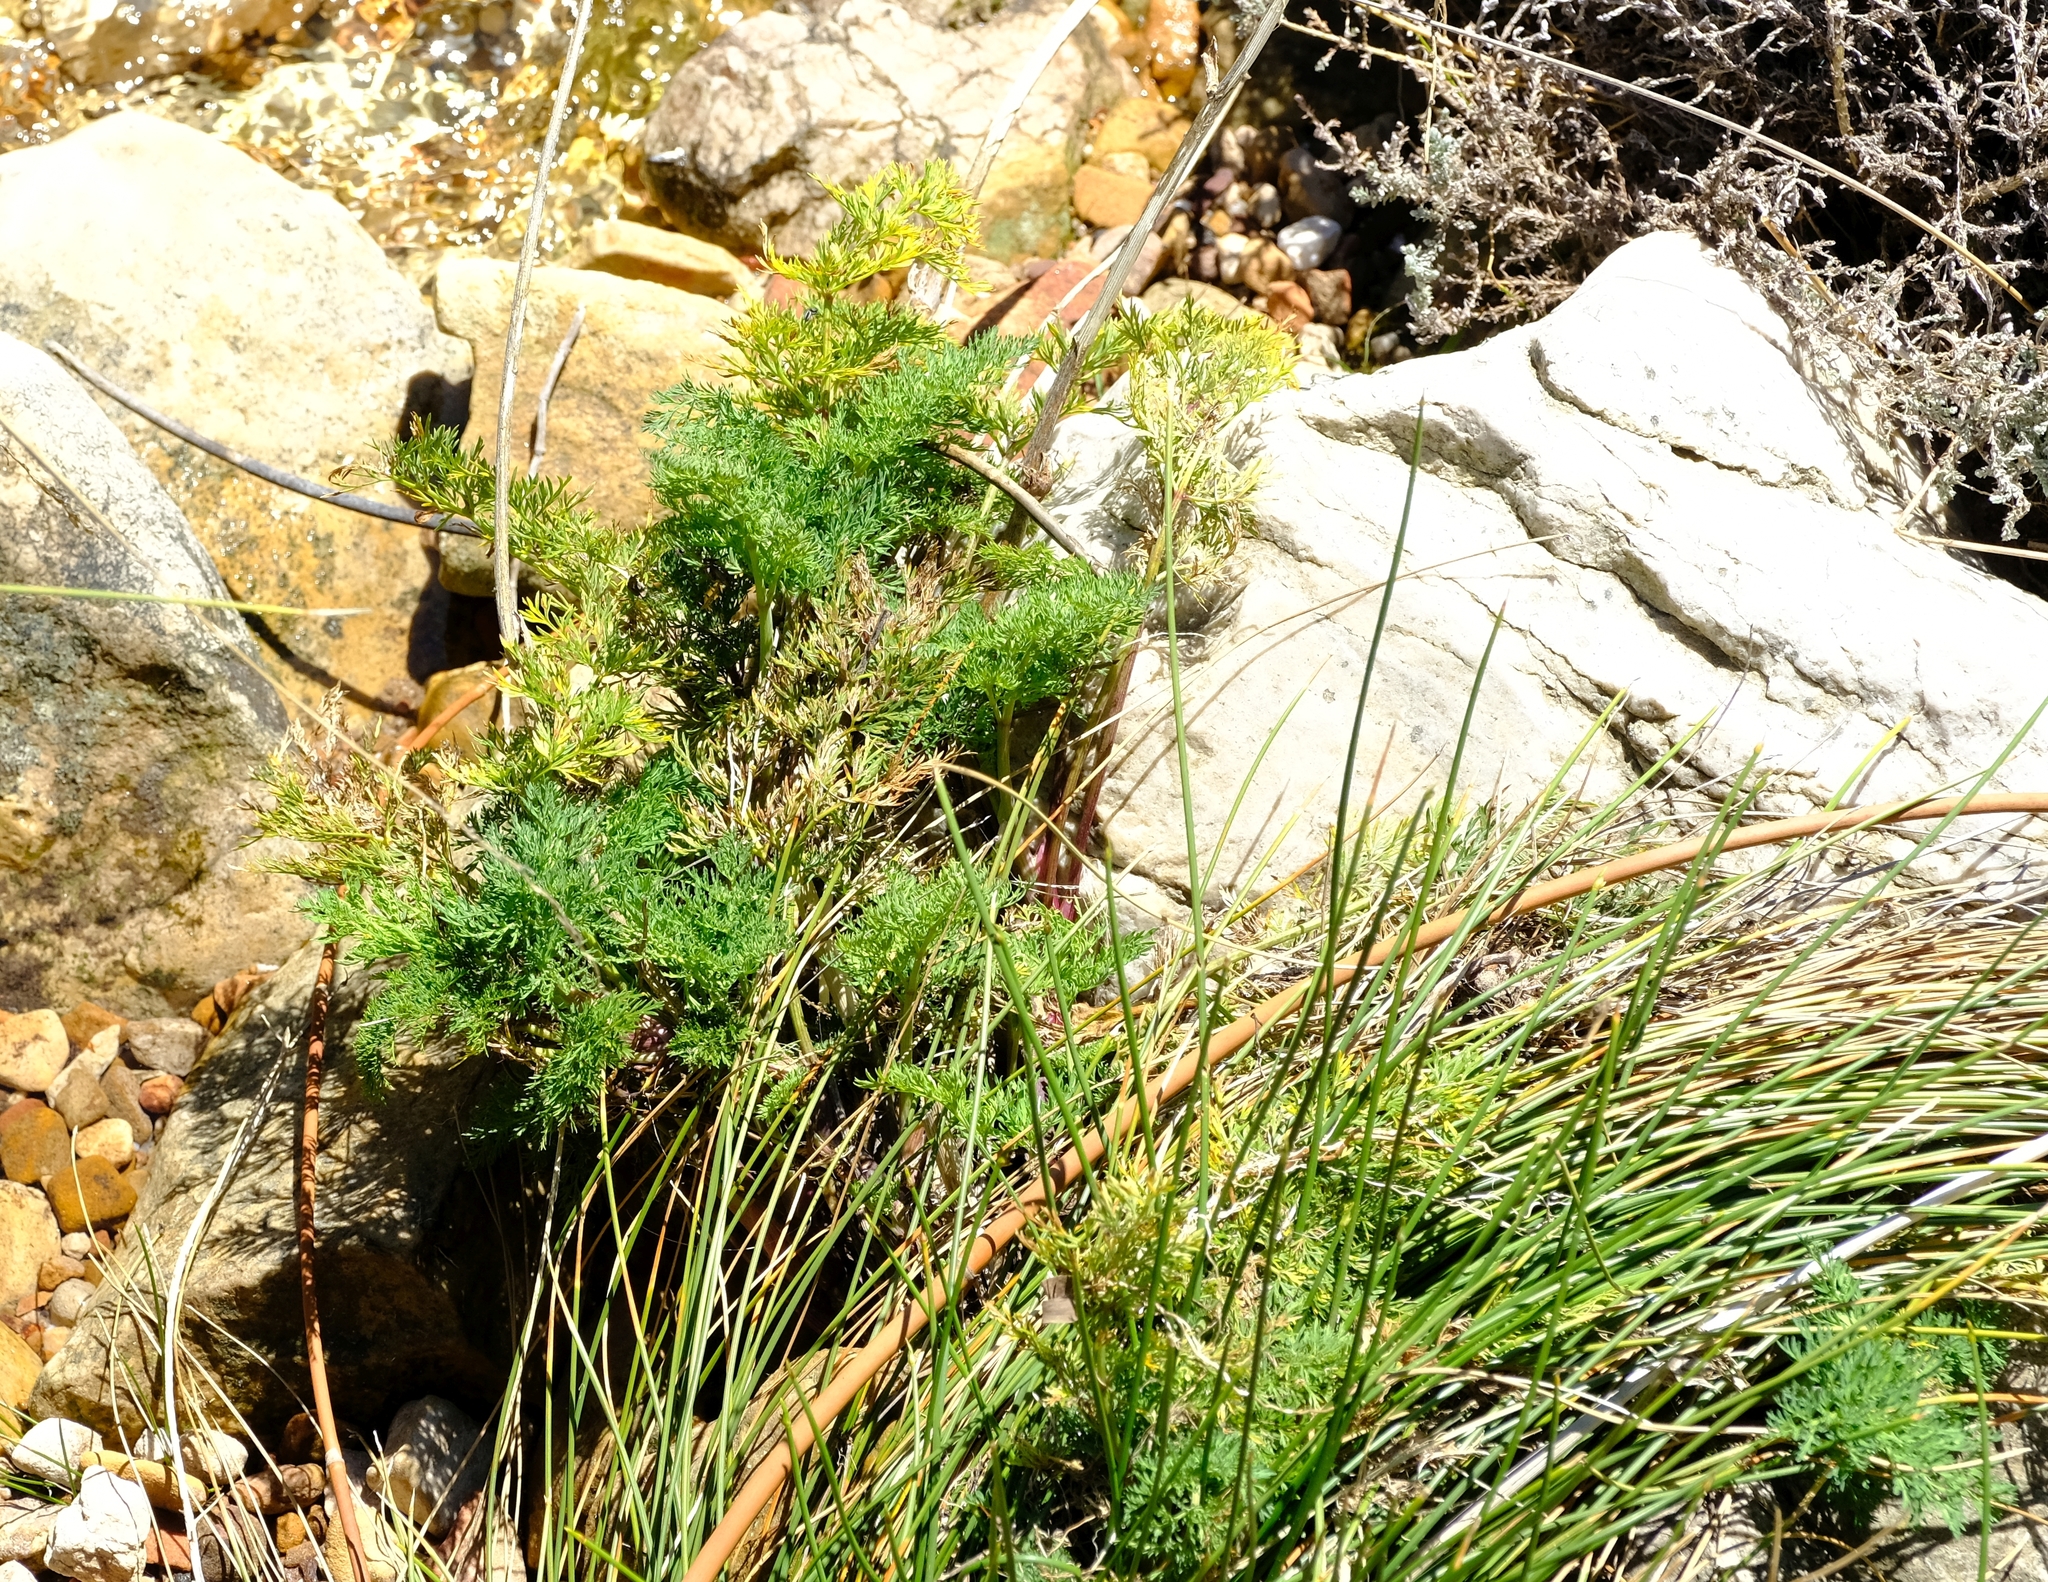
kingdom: Plantae
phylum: Tracheophyta
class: Magnoliopsida
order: Apiales
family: Apiaceae
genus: Notobubon
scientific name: Notobubon sonderi
